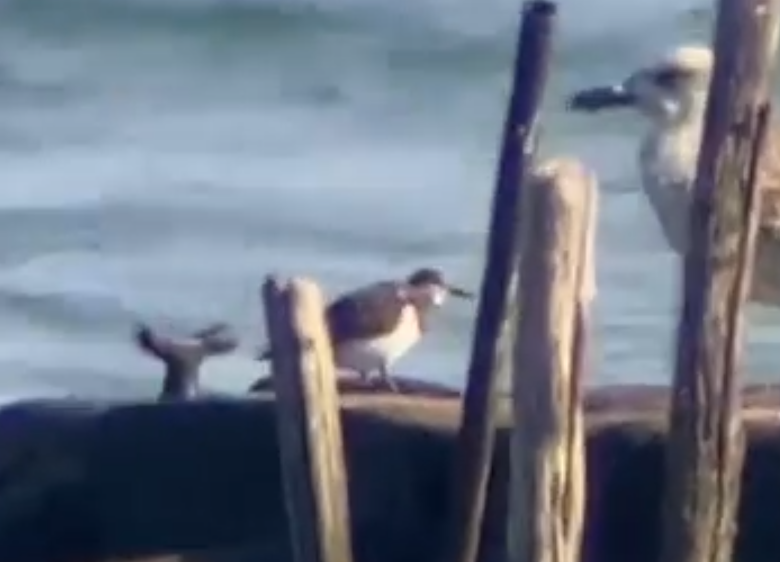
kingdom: Animalia
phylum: Chordata
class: Aves
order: Charadriiformes
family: Scolopacidae
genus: Arenaria
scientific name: Arenaria interpres
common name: Ruddy turnstone
